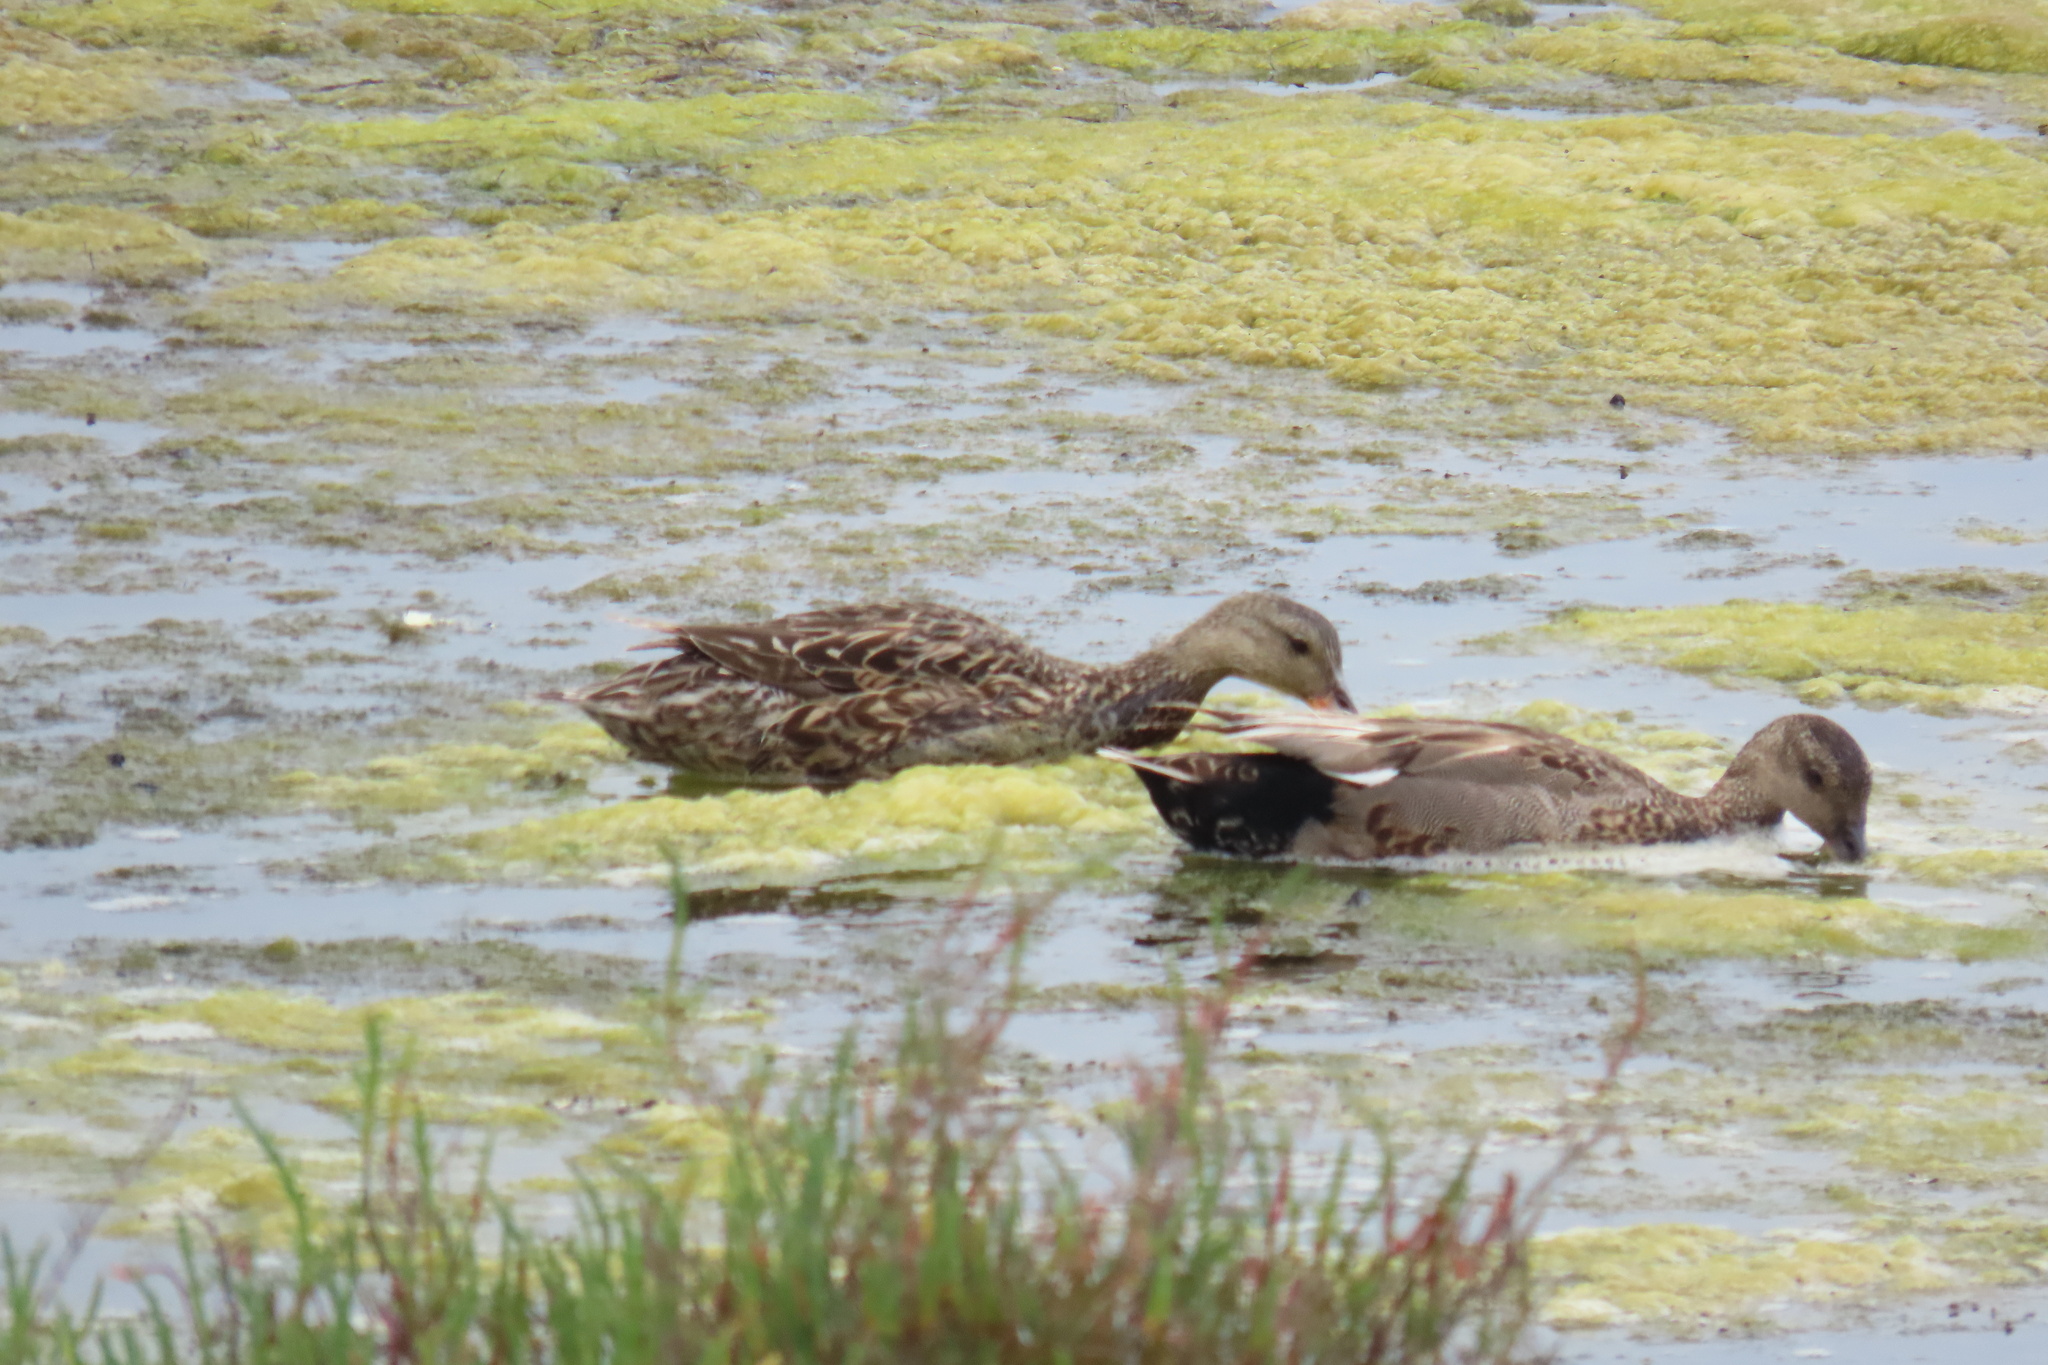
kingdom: Animalia
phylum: Chordata
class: Aves
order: Anseriformes
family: Anatidae
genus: Mareca
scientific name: Mareca strepera
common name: Gadwall
